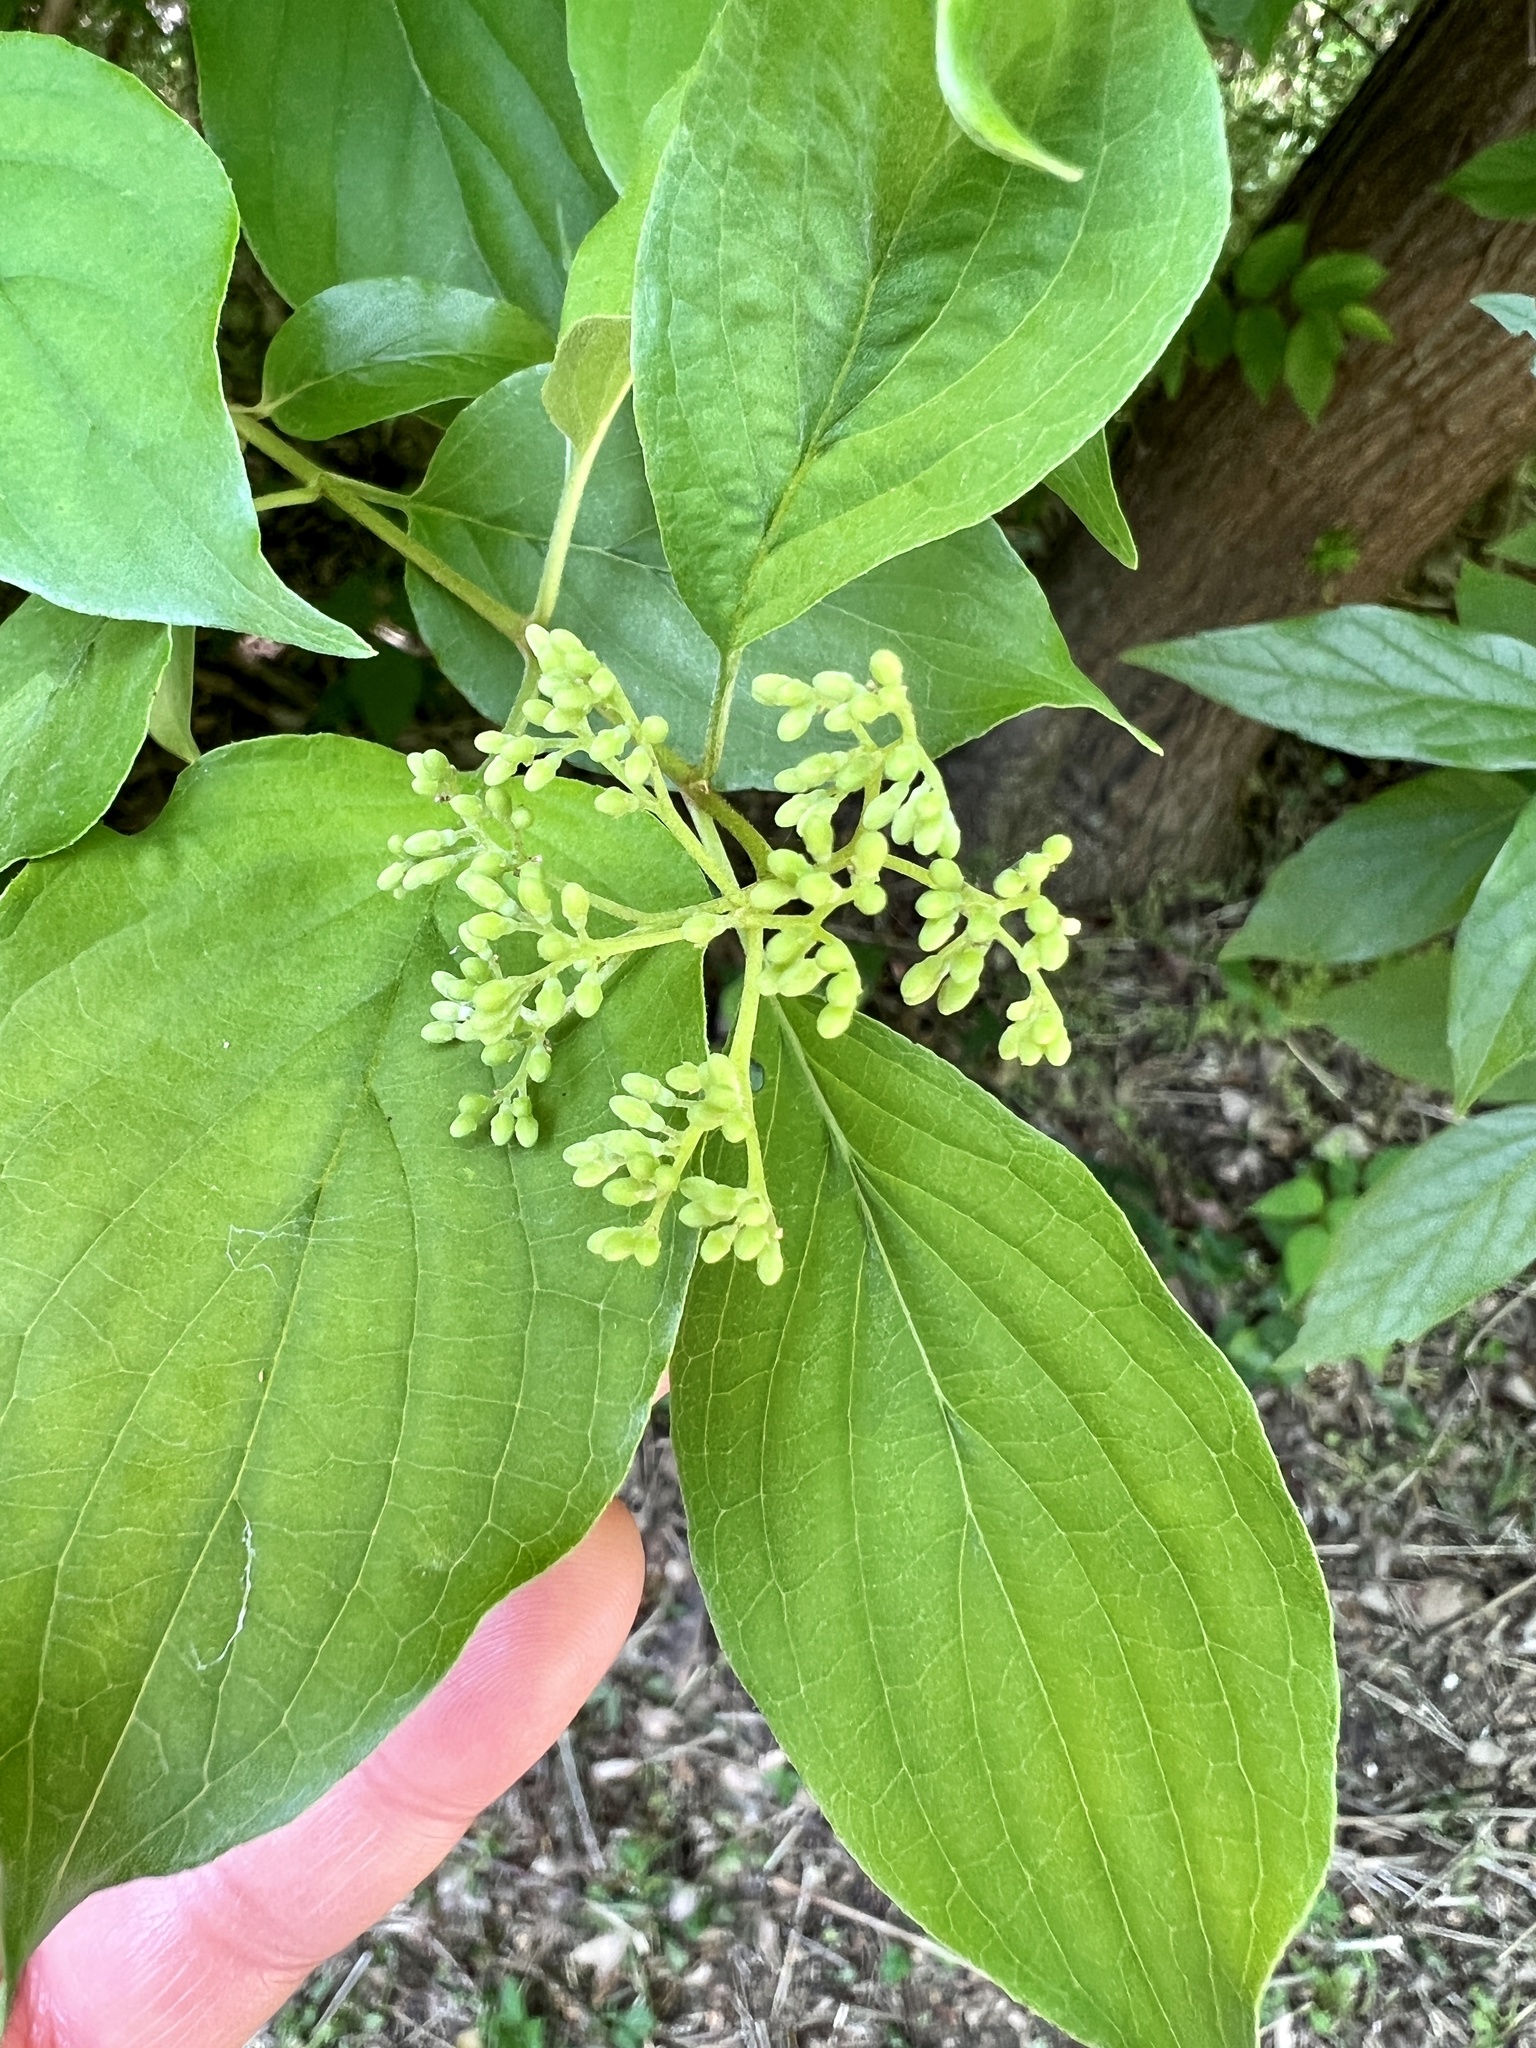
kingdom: Plantae
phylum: Tracheophyta
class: Magnoliopsida
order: Cornales
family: Cornaceae
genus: Cornus
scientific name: Cornus drummondii
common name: Rough-leaf dogwood
